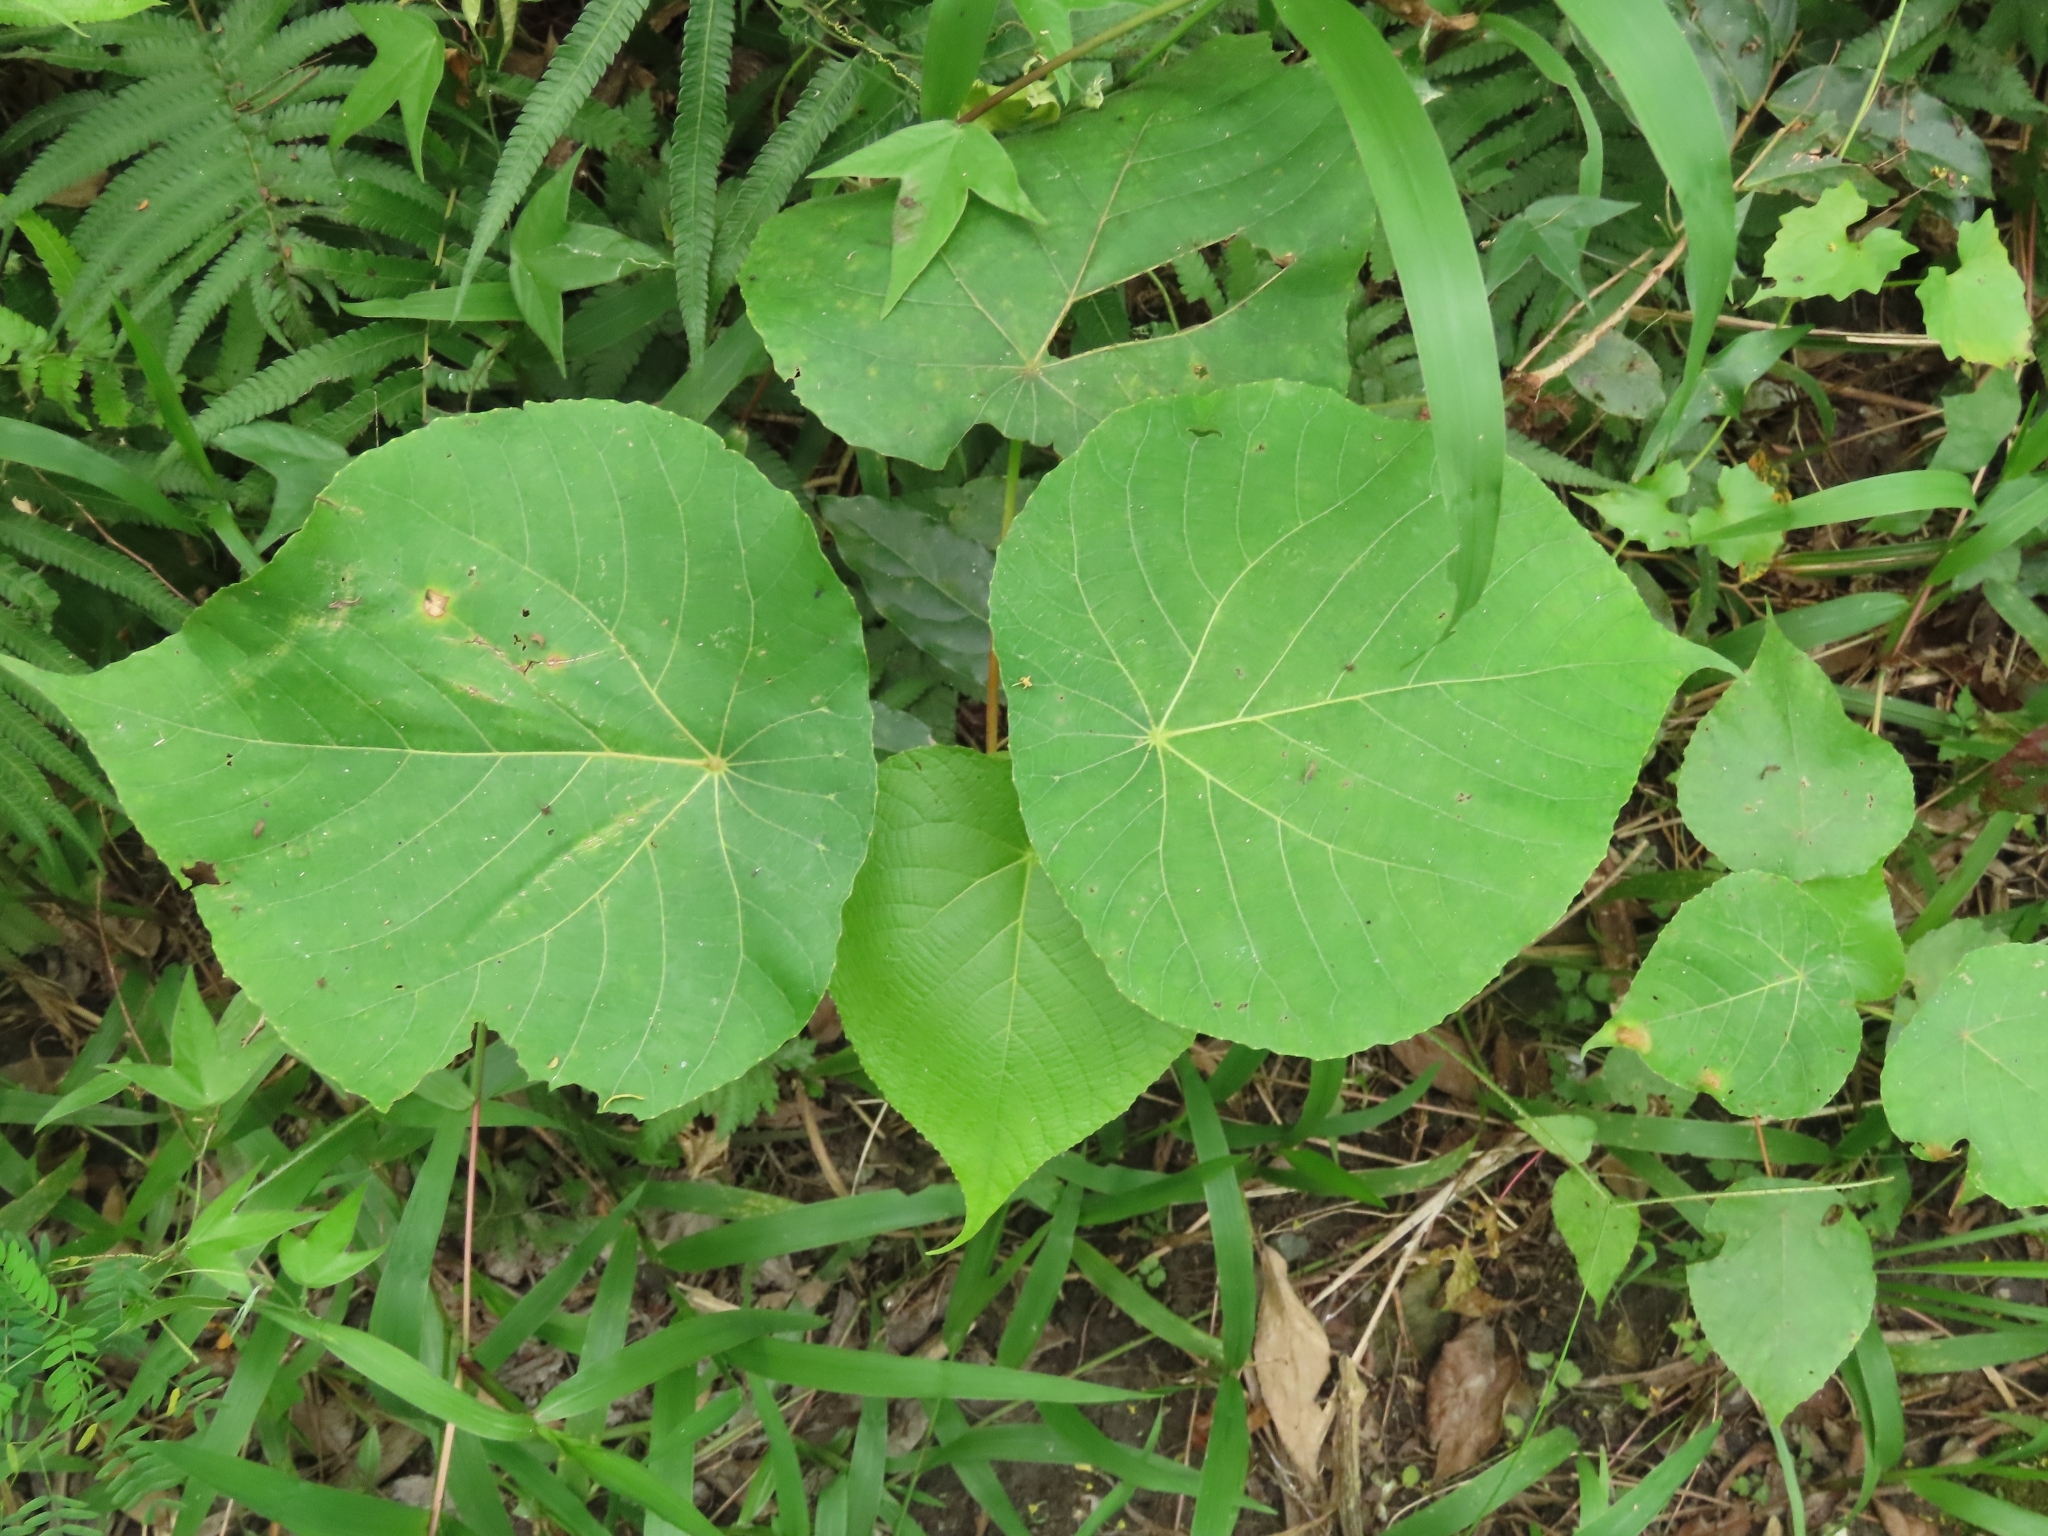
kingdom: Plantae
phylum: Tracheophyta
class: Magnoliopsida
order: Malpighiales
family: Euphorbiaceae
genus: Macaranga
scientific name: Macaranga tanarius
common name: Parasol leaf tree
